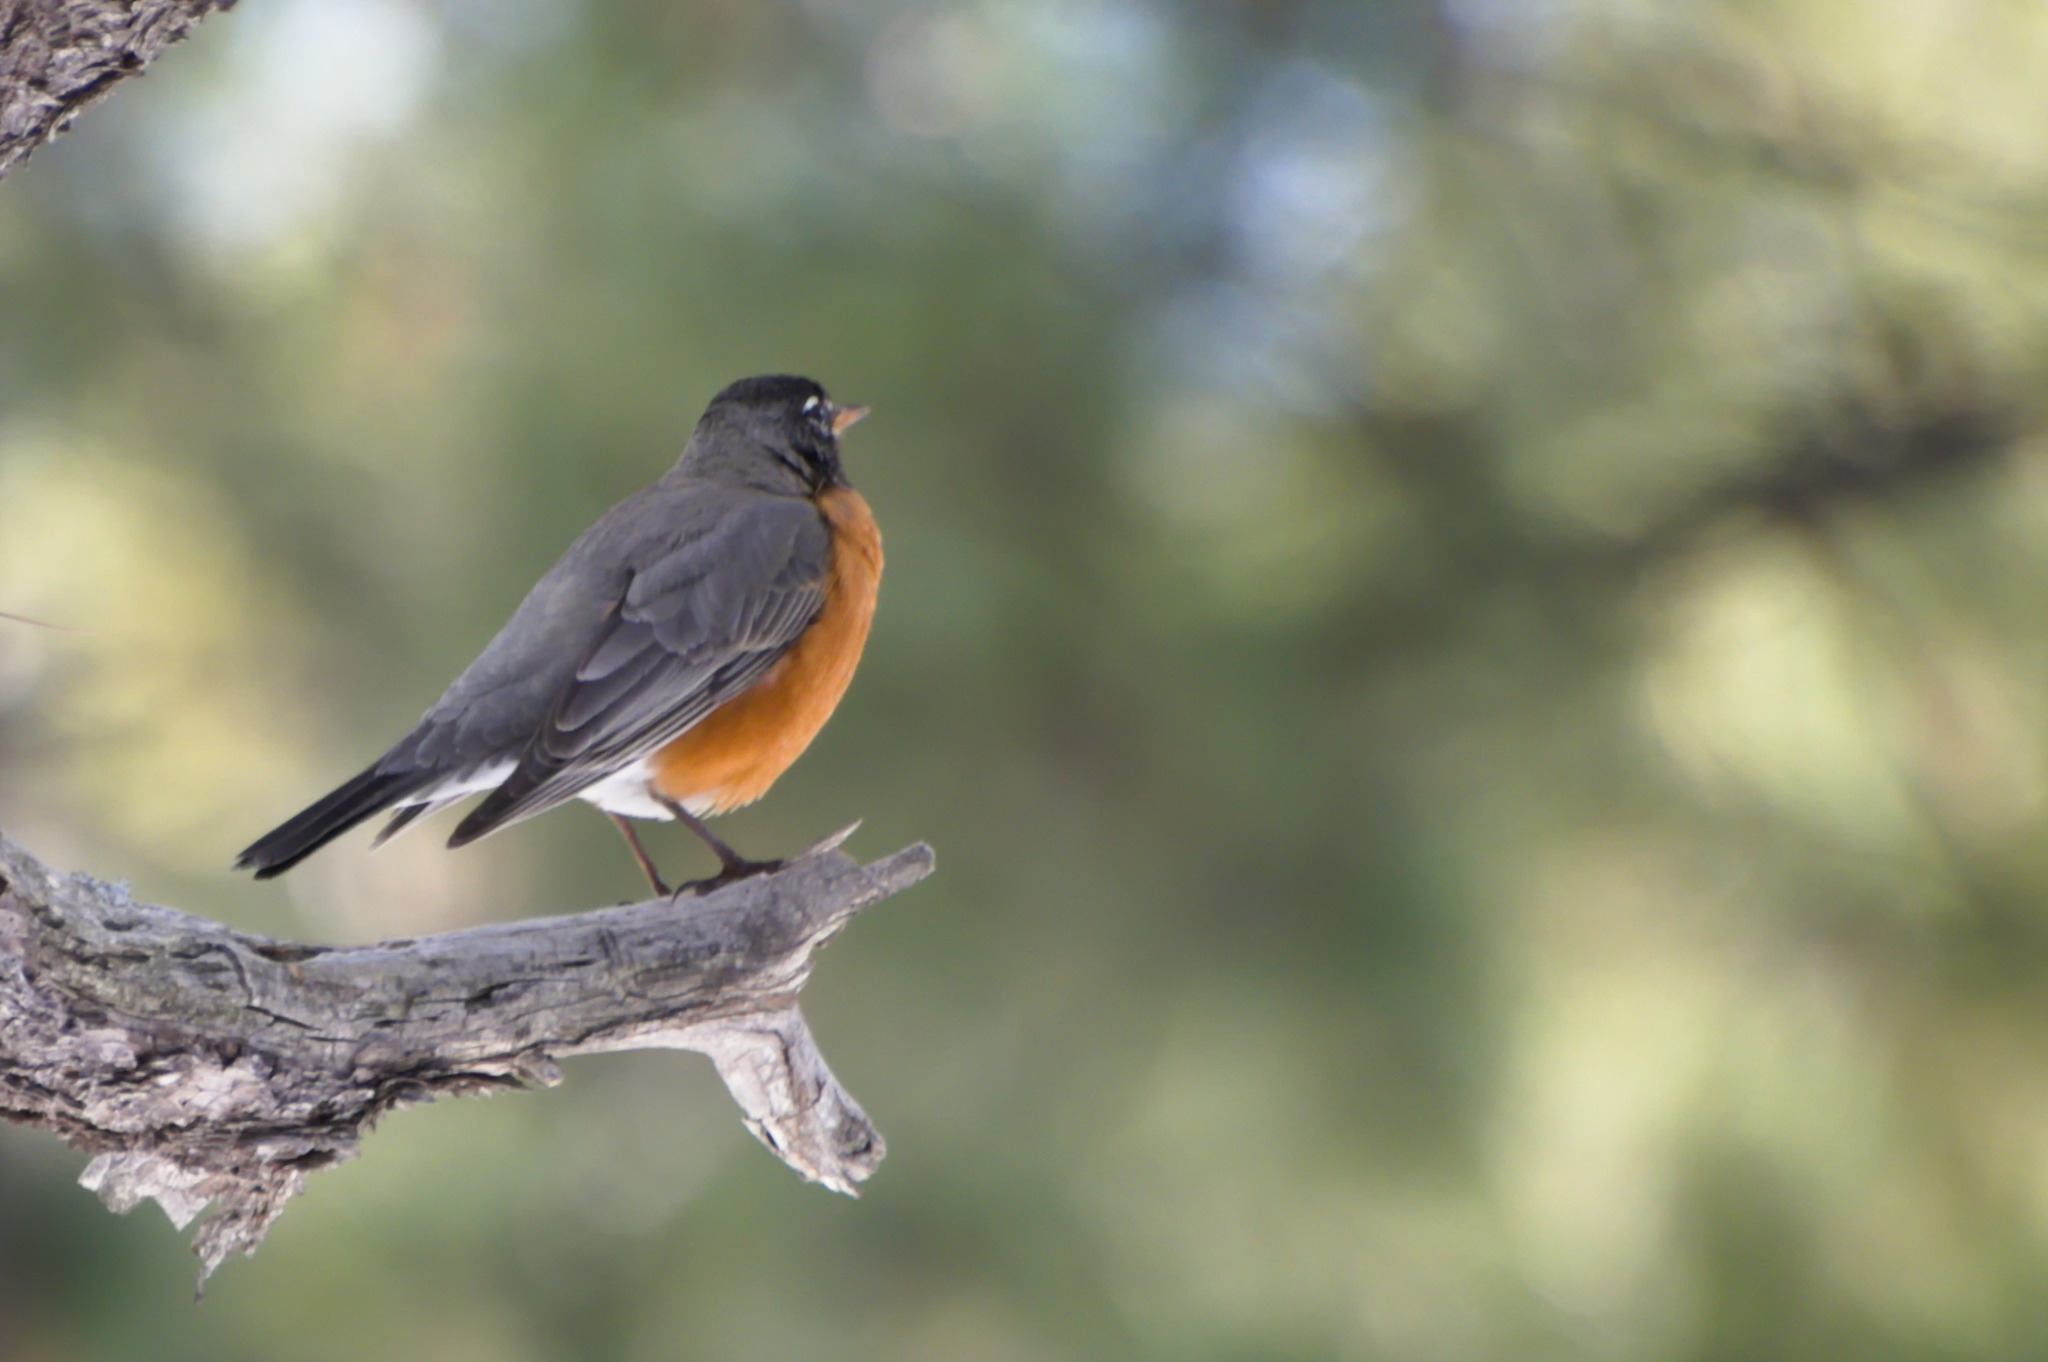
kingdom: Animalia
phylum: Chordata
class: Aves
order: Passeriformes
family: Turdidae
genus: Turdus
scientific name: Turdus migratorius
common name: American robin
